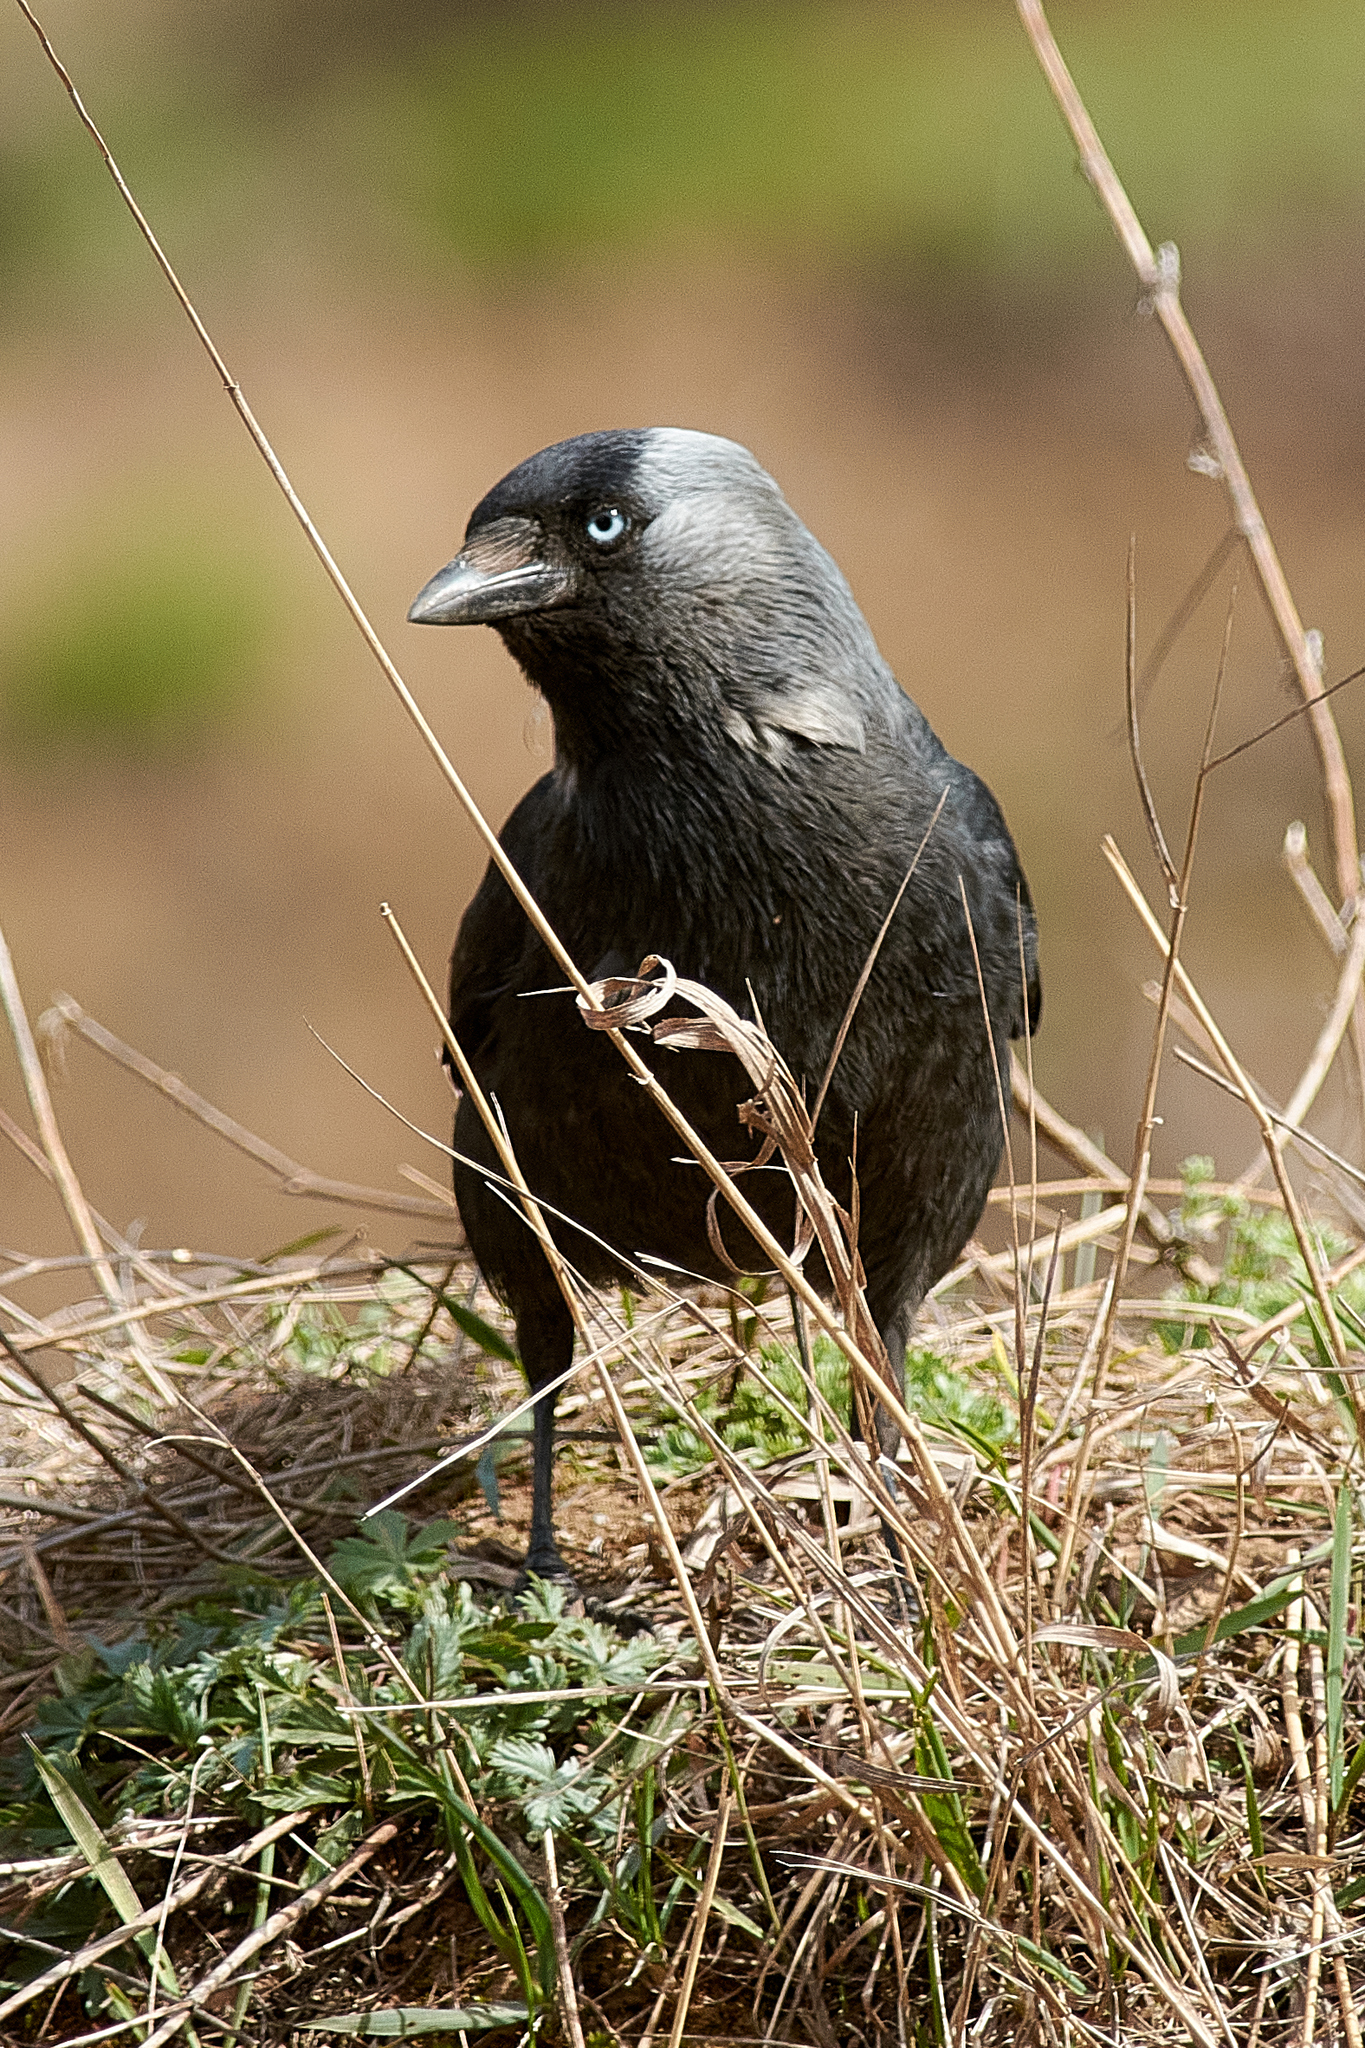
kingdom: Animalia
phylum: Chordata
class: Aves
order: Passeriformes
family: Corvidae
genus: Coloeus
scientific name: Coloeus monedula
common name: Western jackdaw
